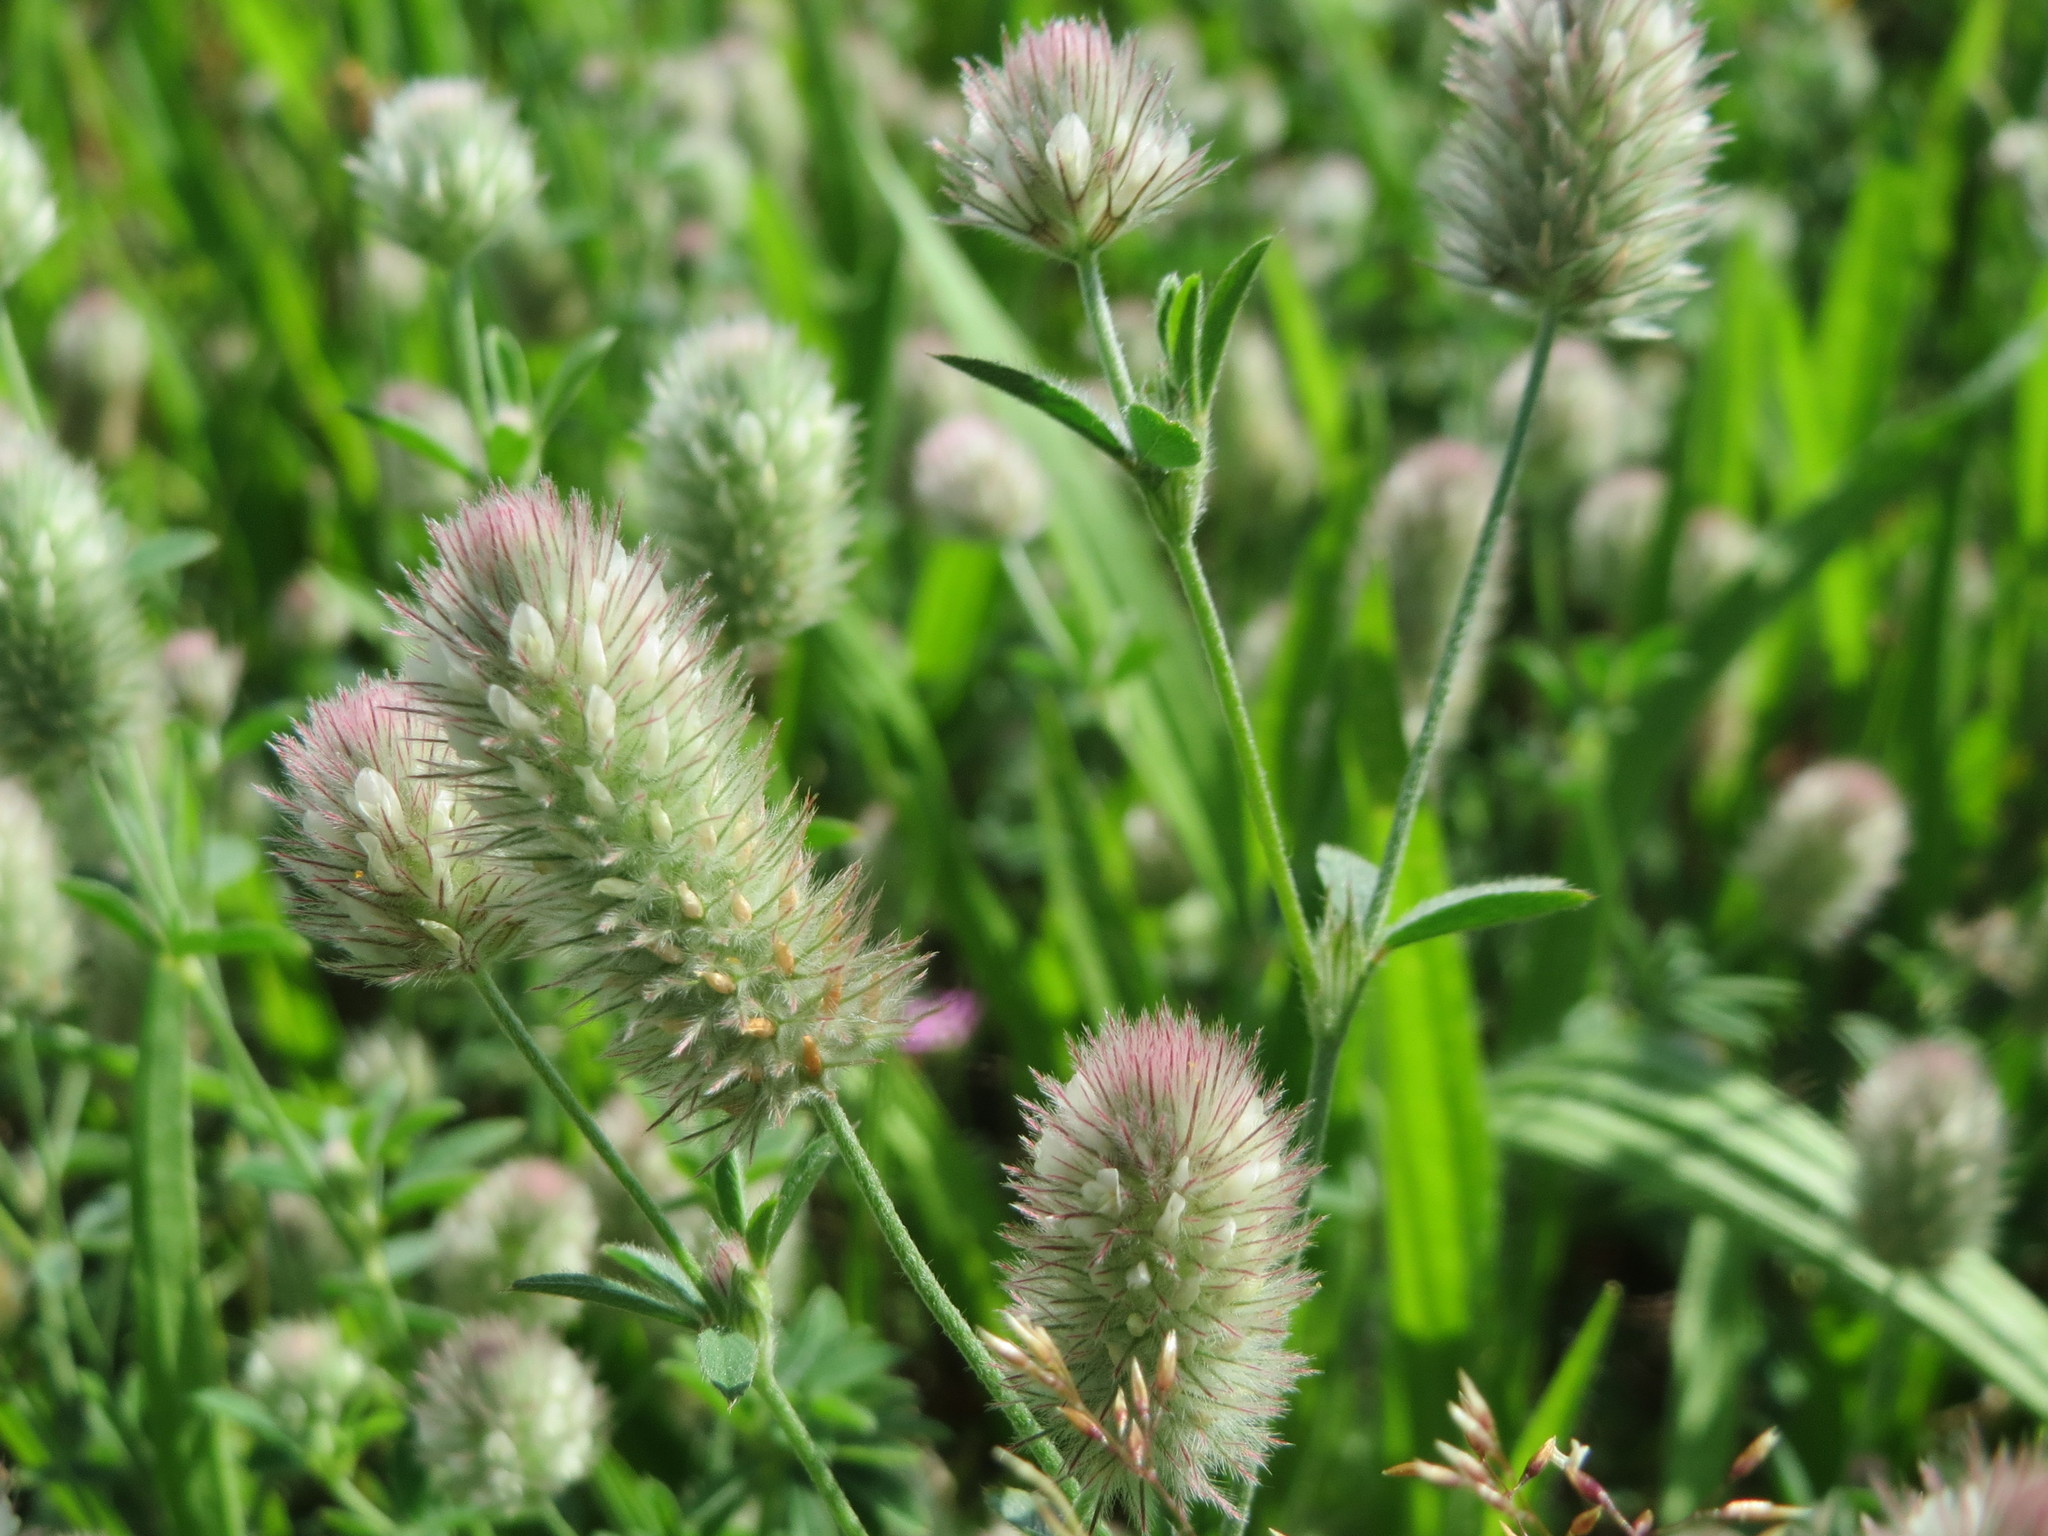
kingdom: Plantae
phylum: Tracheophyta
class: Magnoliopsida
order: Fabales
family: Fabaceae
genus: Trifolium
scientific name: Trifolium arvense
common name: Hare's-foot clover
